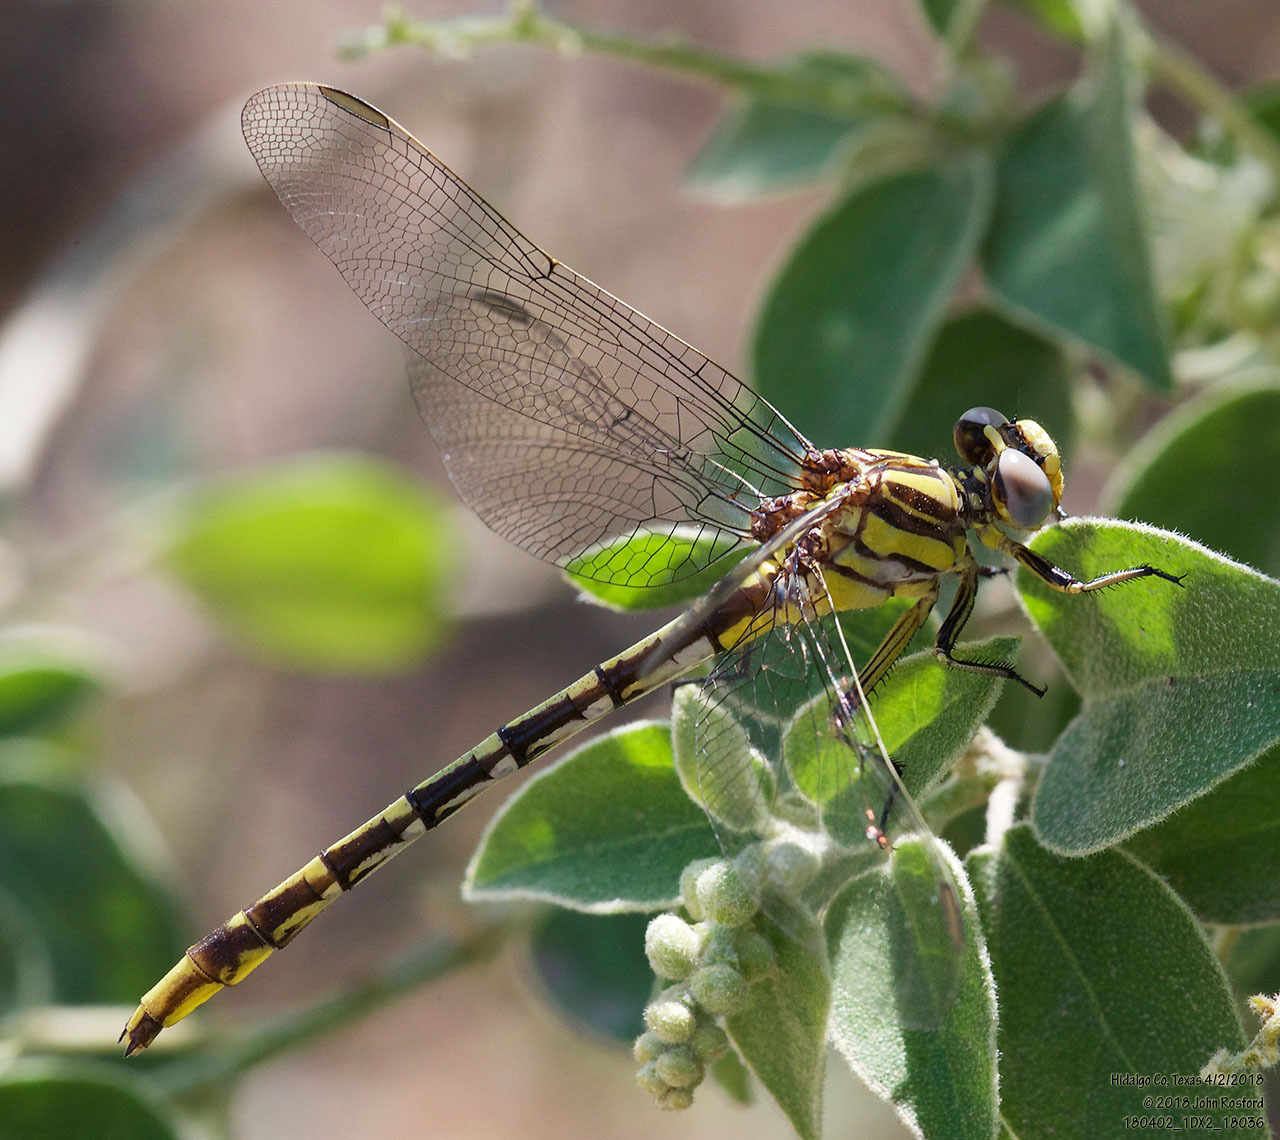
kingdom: Animalia
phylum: Arthropoda
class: Insecta
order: Odonata
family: Gomphidae
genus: Phanogomphus
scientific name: Phanogomphus militaris
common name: Sulphur-tipped clubtail
